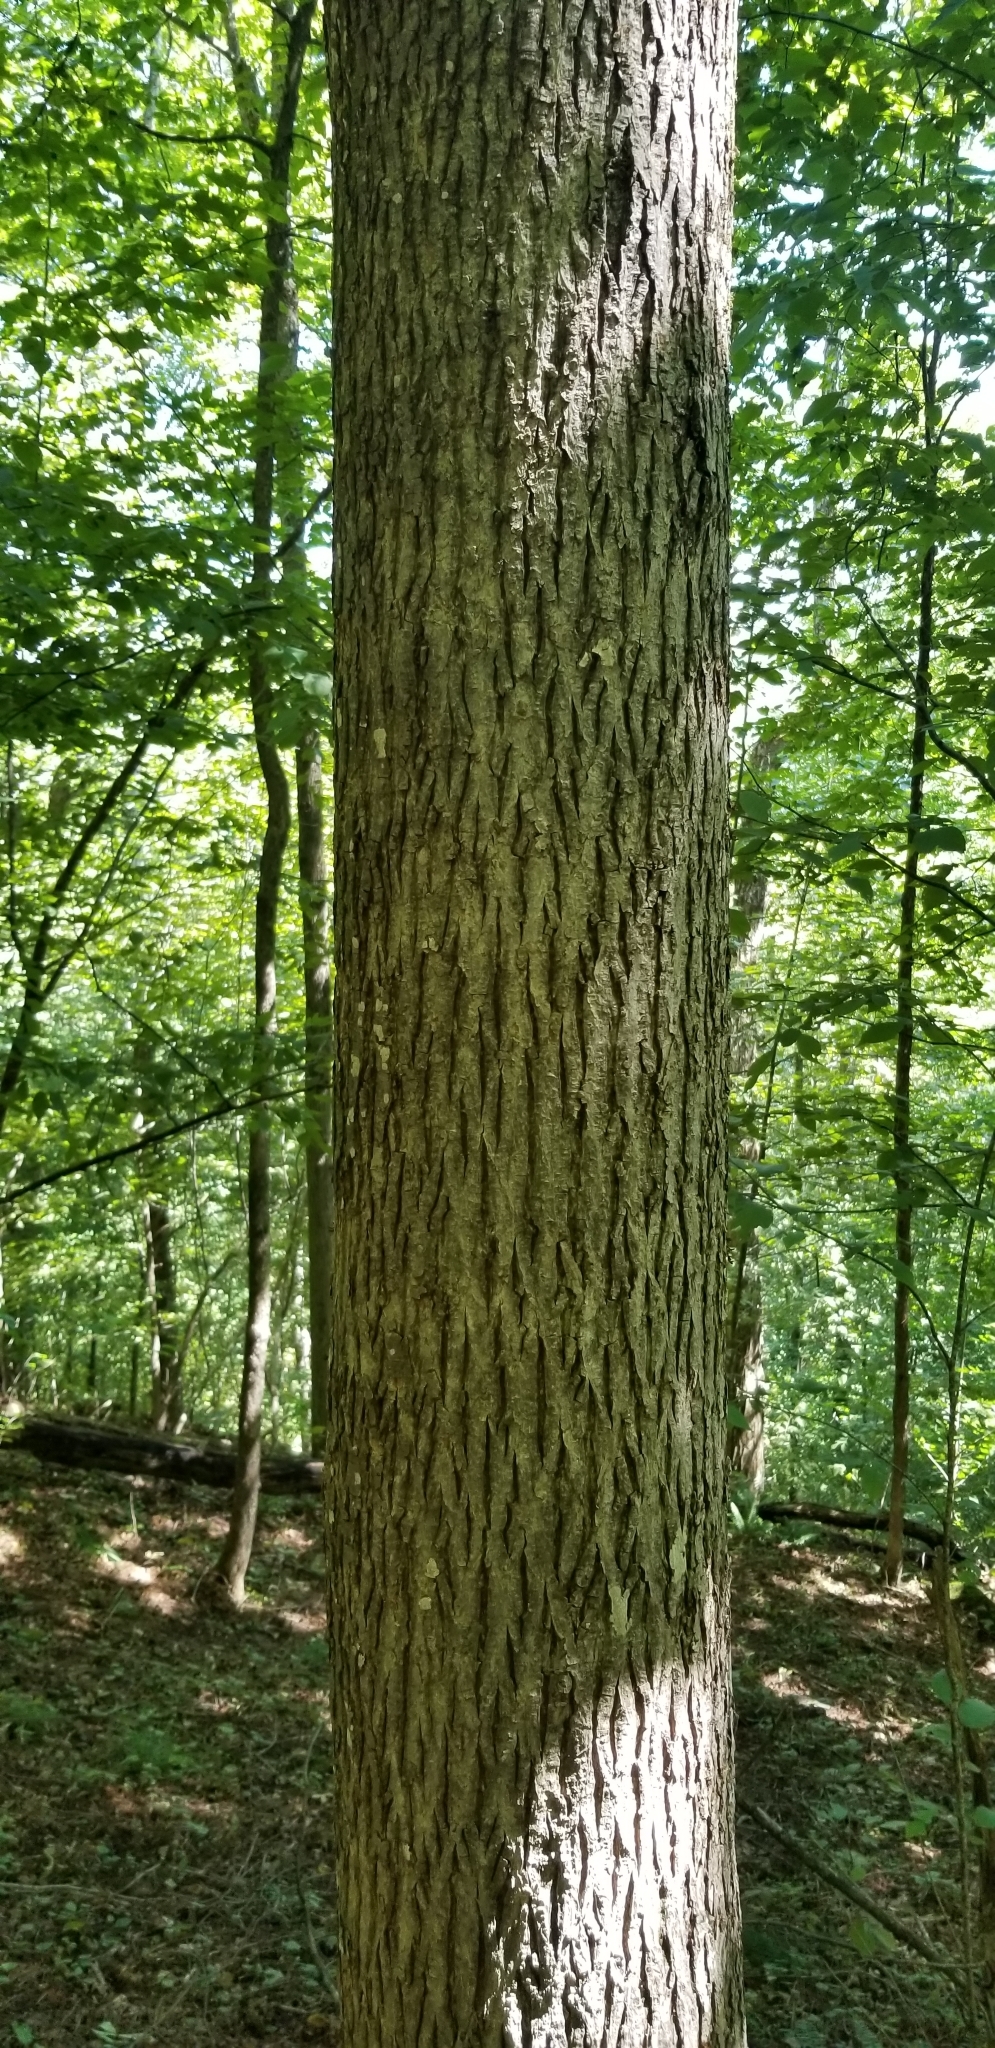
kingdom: Plantae
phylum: Tracheophyta
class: Magnoliopsida
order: Fagales
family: Juglandaceae
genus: Carya
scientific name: Carya glabra
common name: Pignut hickory
